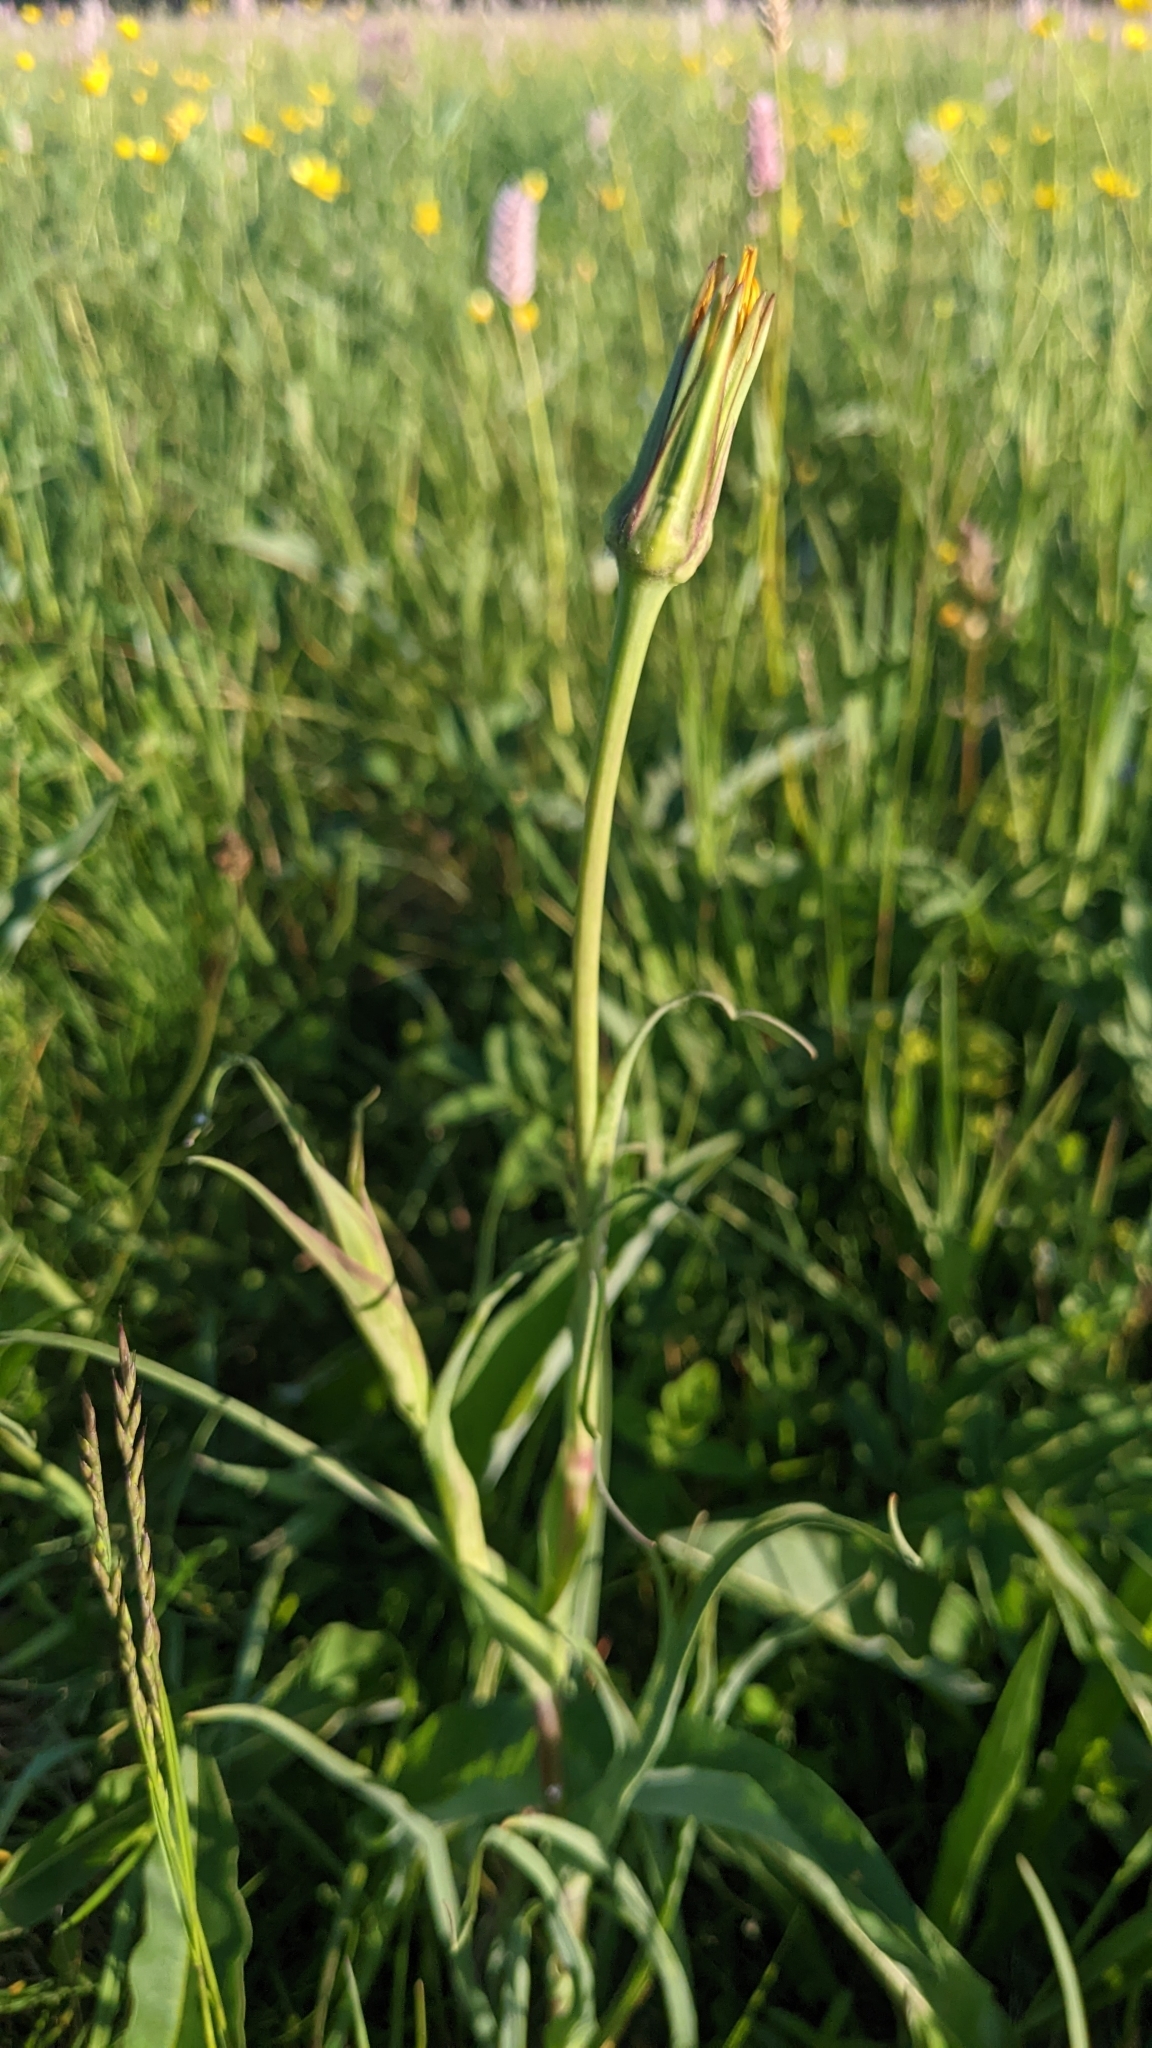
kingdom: Plantae
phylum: Tracheophyta
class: Magnoliopsida
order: Asterales
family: Asteraceae
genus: Tragopogon
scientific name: Tragopogon pratensis
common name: Goat's-beard
